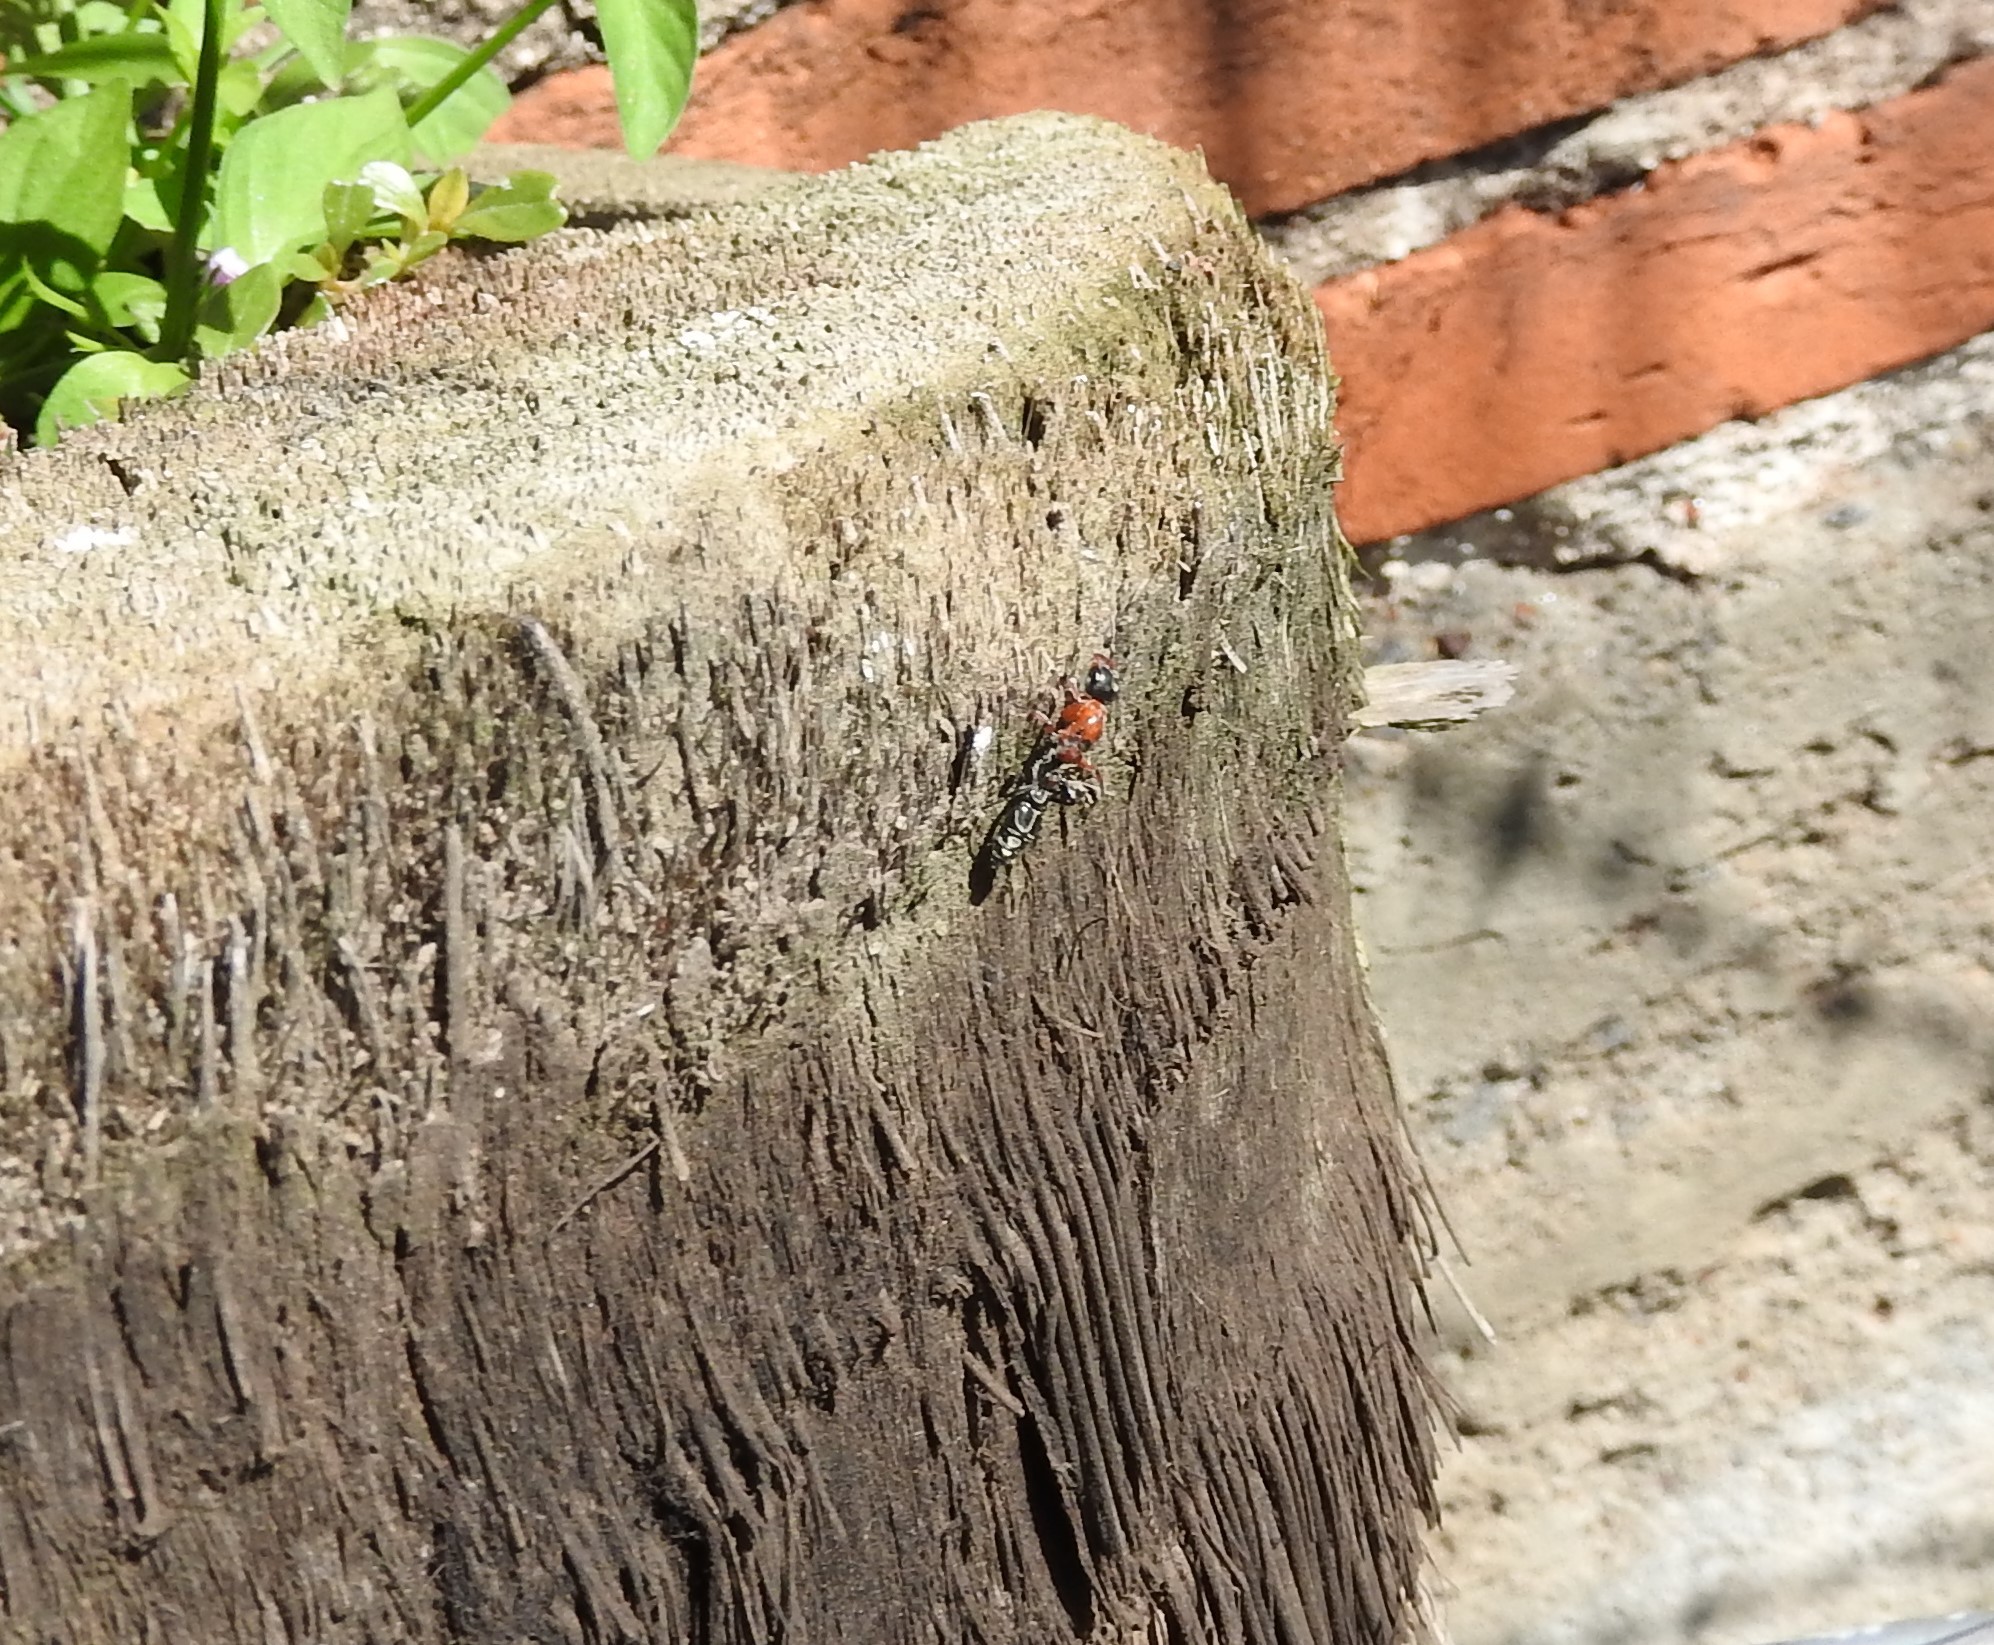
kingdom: Animalia
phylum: Arthropoda
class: Insecta
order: Hymenoptera
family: Formicidae
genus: Pseudomyrmex
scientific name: Pseudomyrmex gracilis
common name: Graceful twig ant
